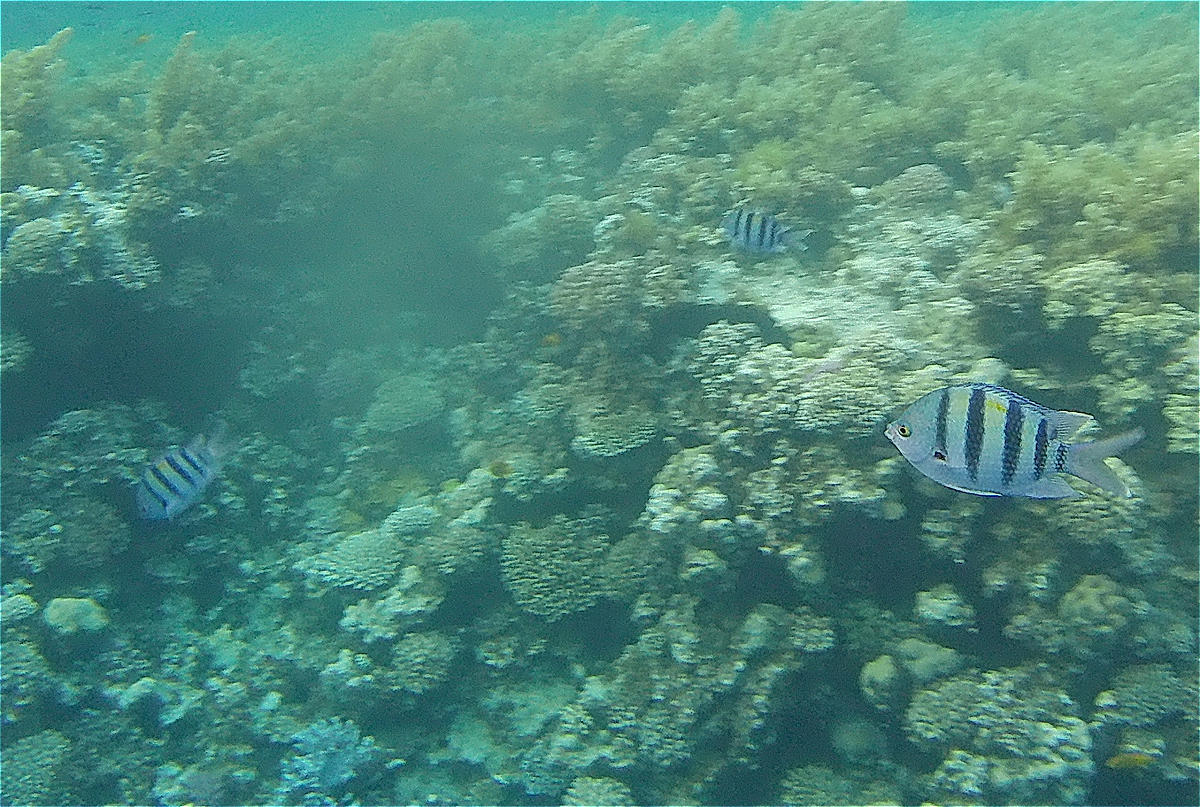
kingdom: Animalia
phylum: Chordata
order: Perciformes
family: Pomacentridae
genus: Abudefduf
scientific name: Abudefduf vaigiensis
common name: Indo-pacific sergeant
